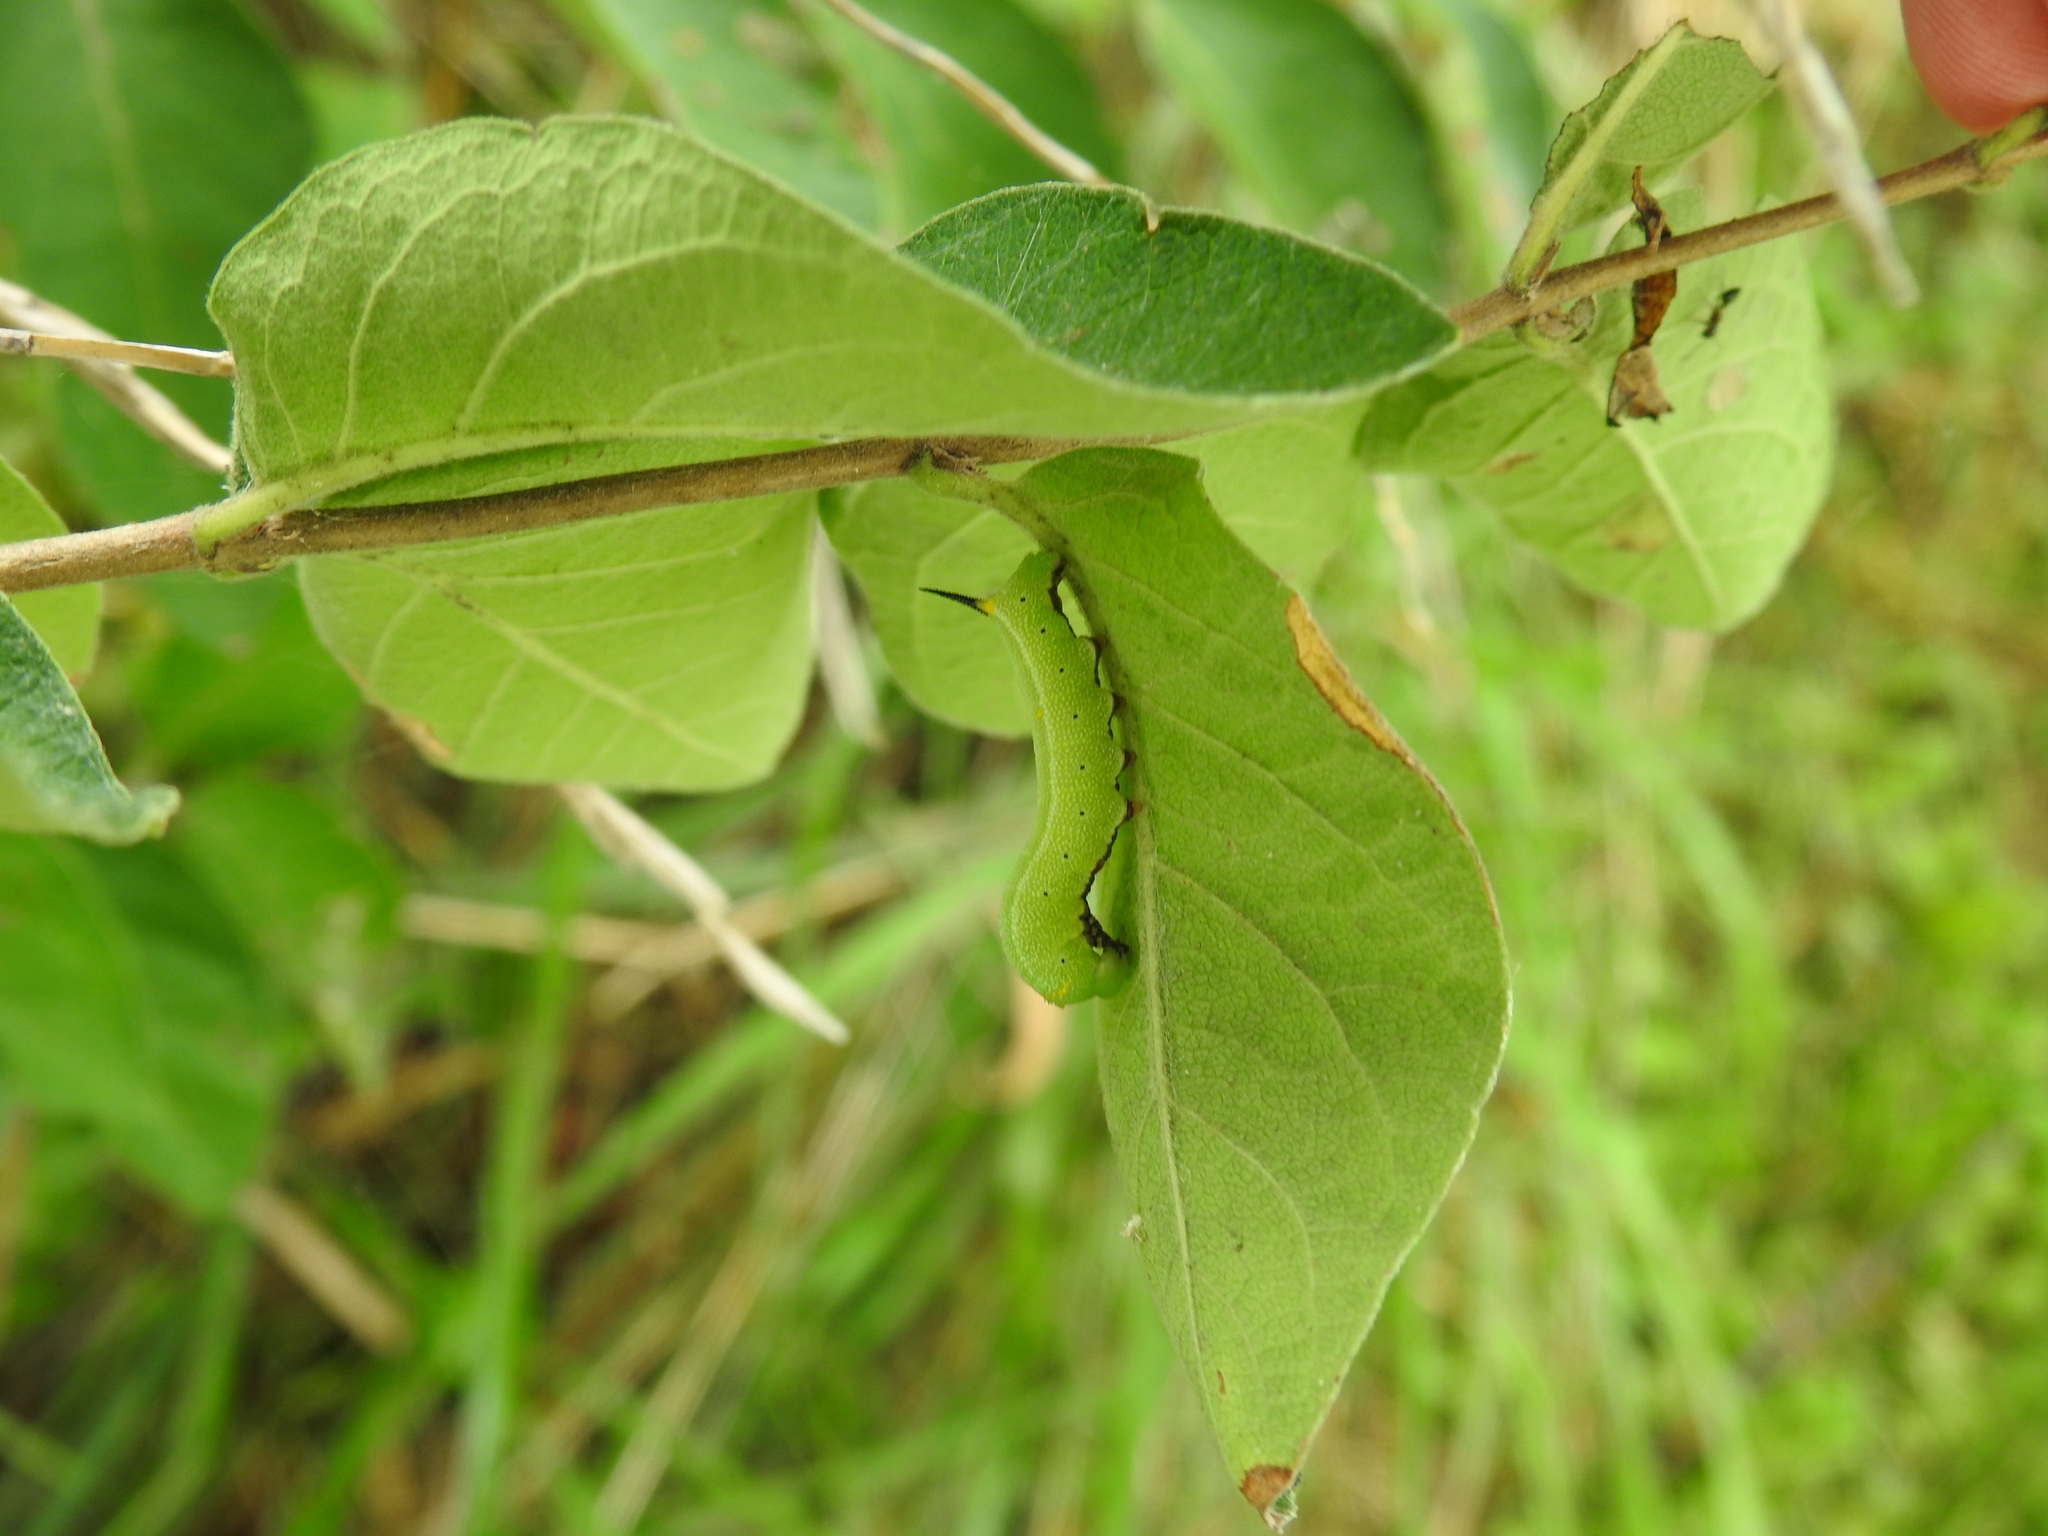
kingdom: Animalia
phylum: Arthropoda
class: Insecta
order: Lepidoptera
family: Sphingidae
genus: Hemaris
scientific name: Hemaris diffinis
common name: Bumblebee moth
